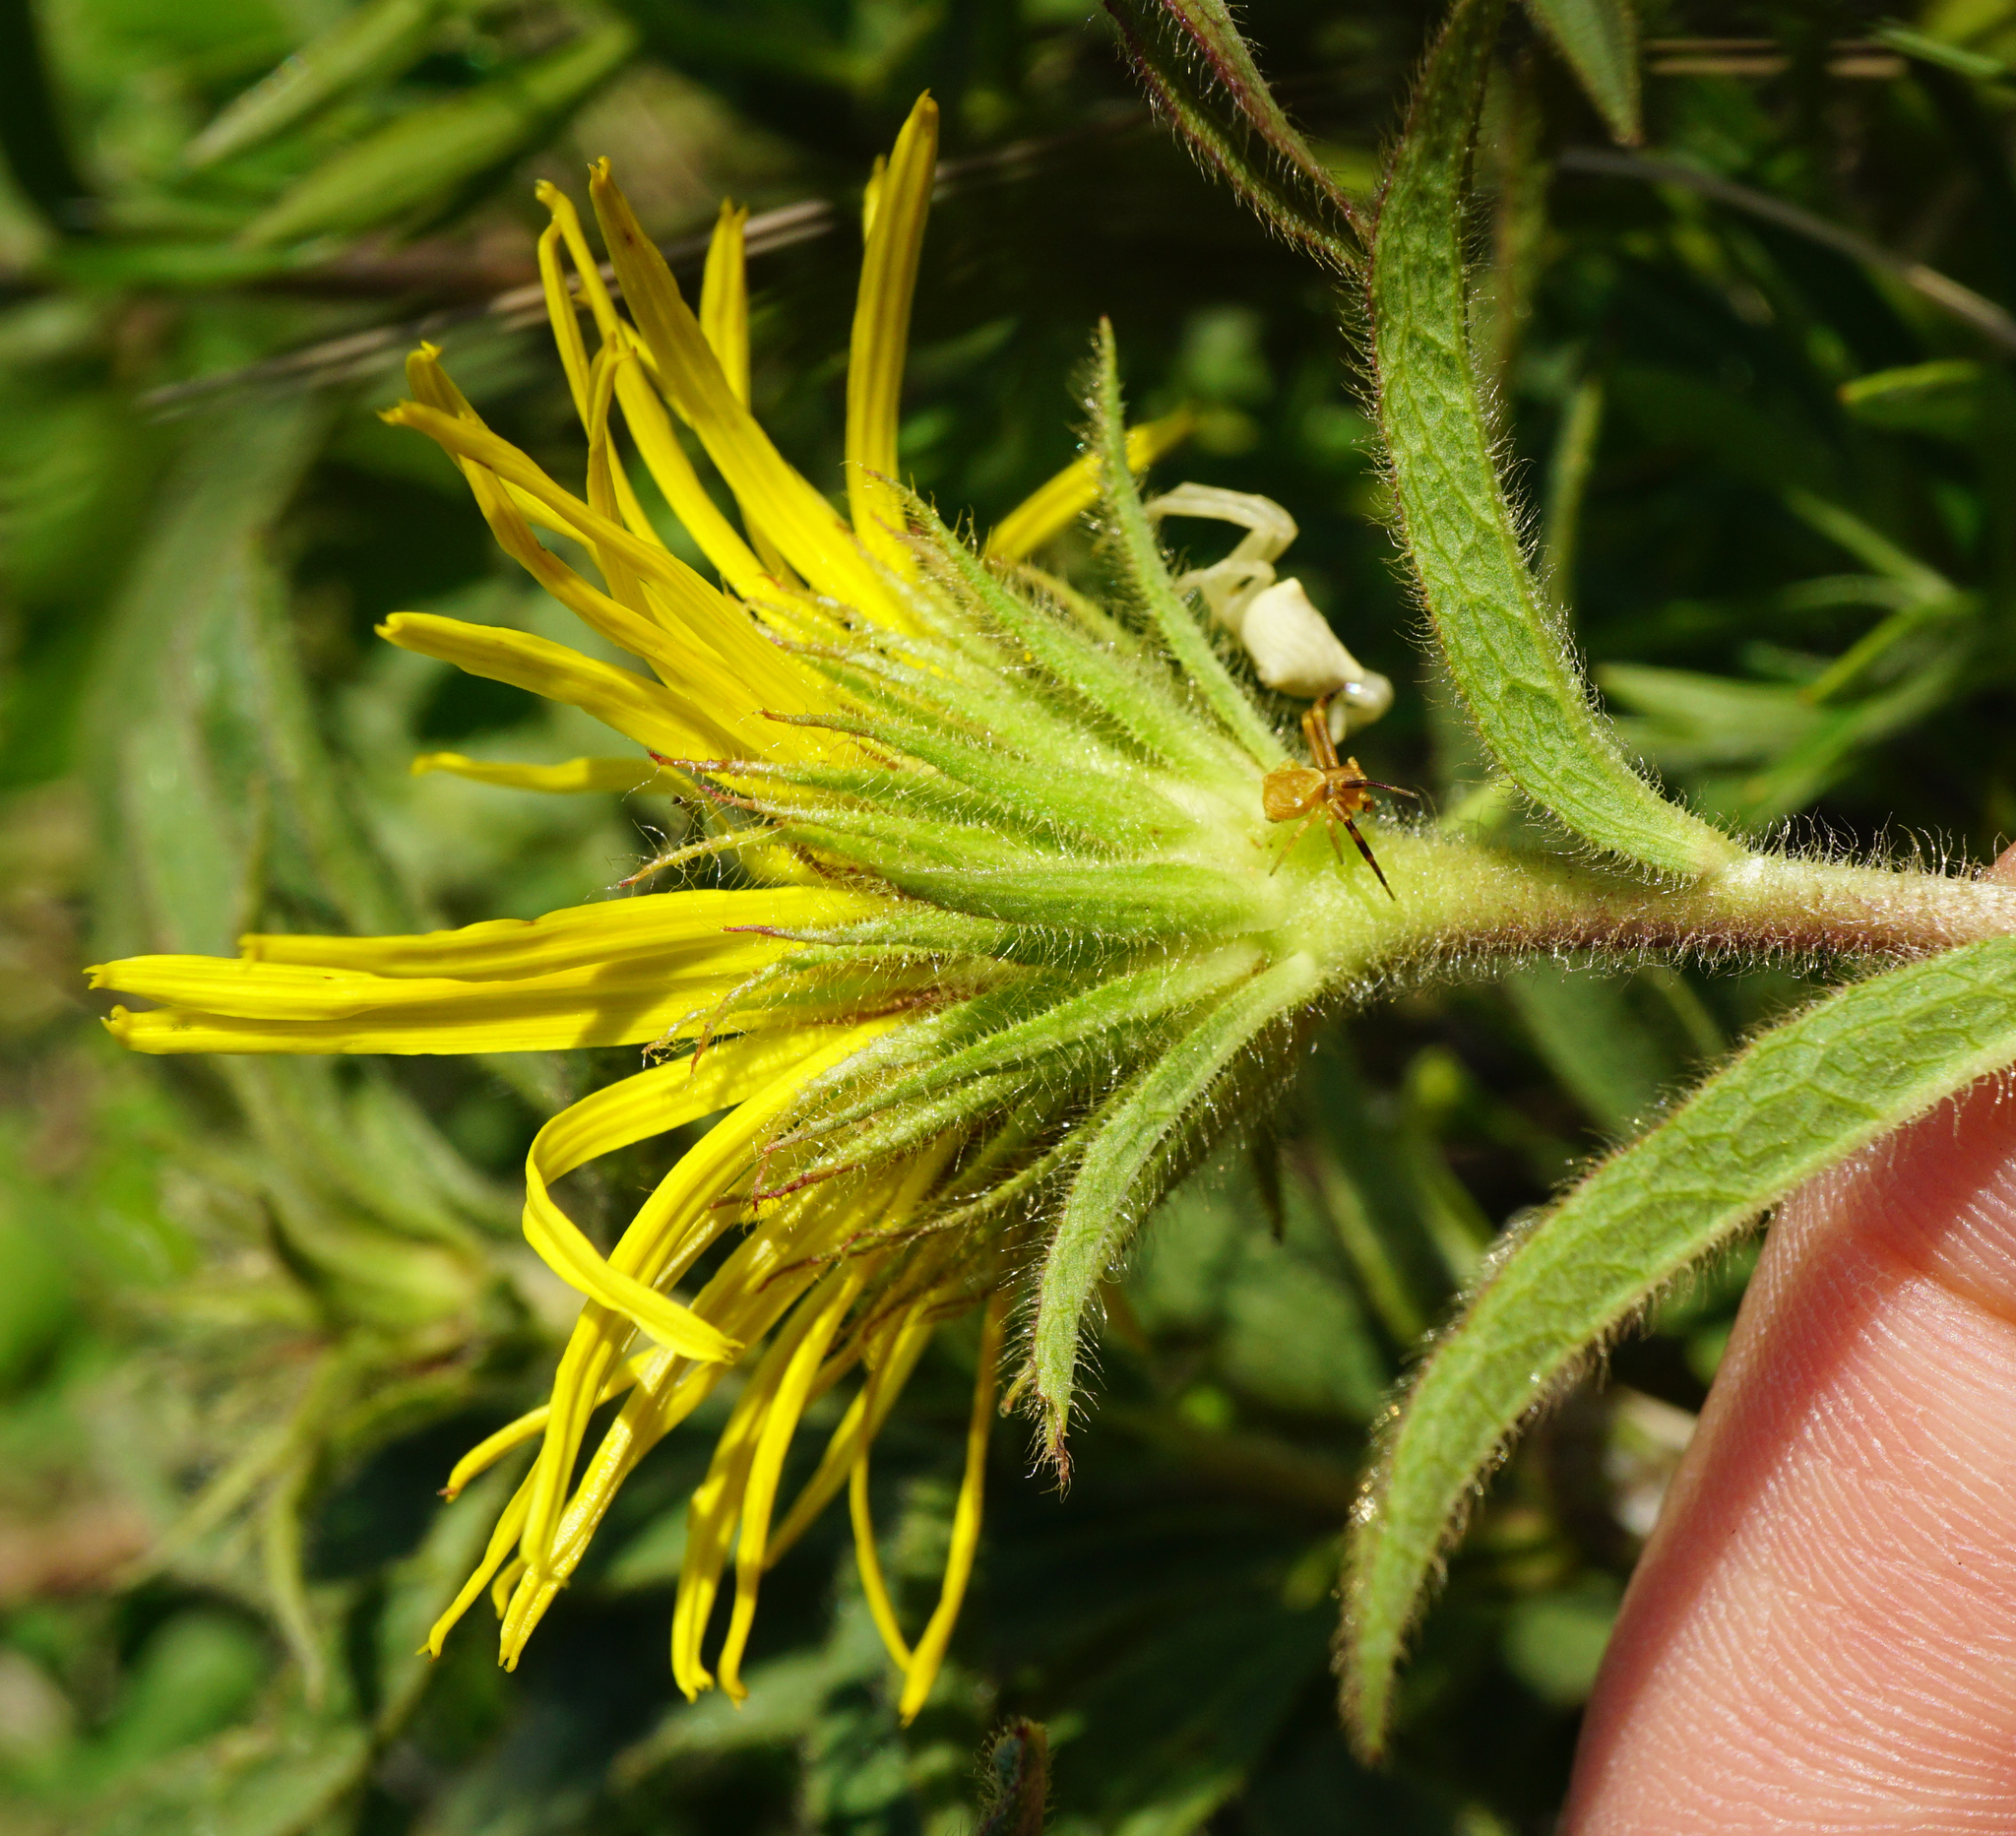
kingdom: Plantae
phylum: Tracheophyta
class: Magnoliopsida
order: Asterales
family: Asteraceae
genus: Pentanema
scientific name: Pentanema hirtum
